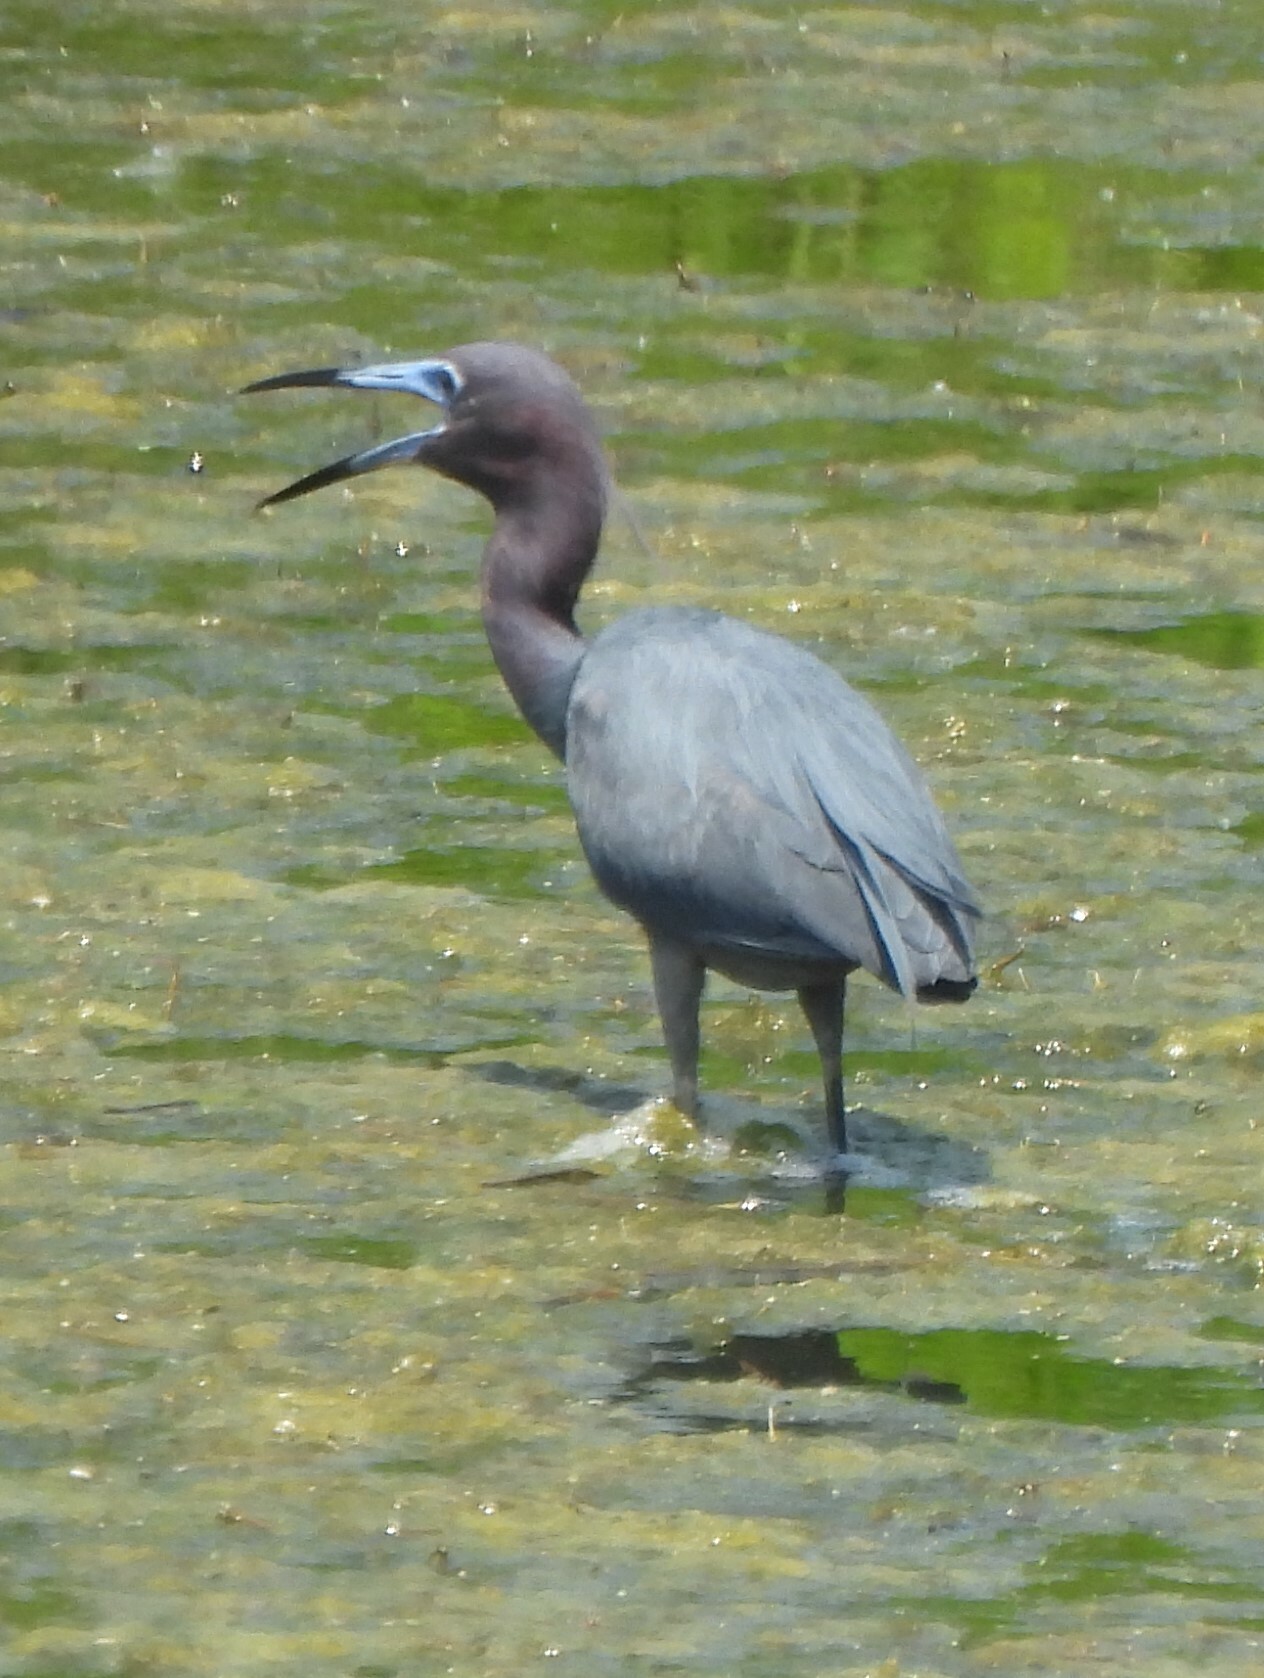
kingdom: Animalia
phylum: Chordata
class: Aves
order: Pelecaniformes
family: Ardeidae
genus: Egretta
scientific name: Egretta caerulea
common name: Little blue heron
